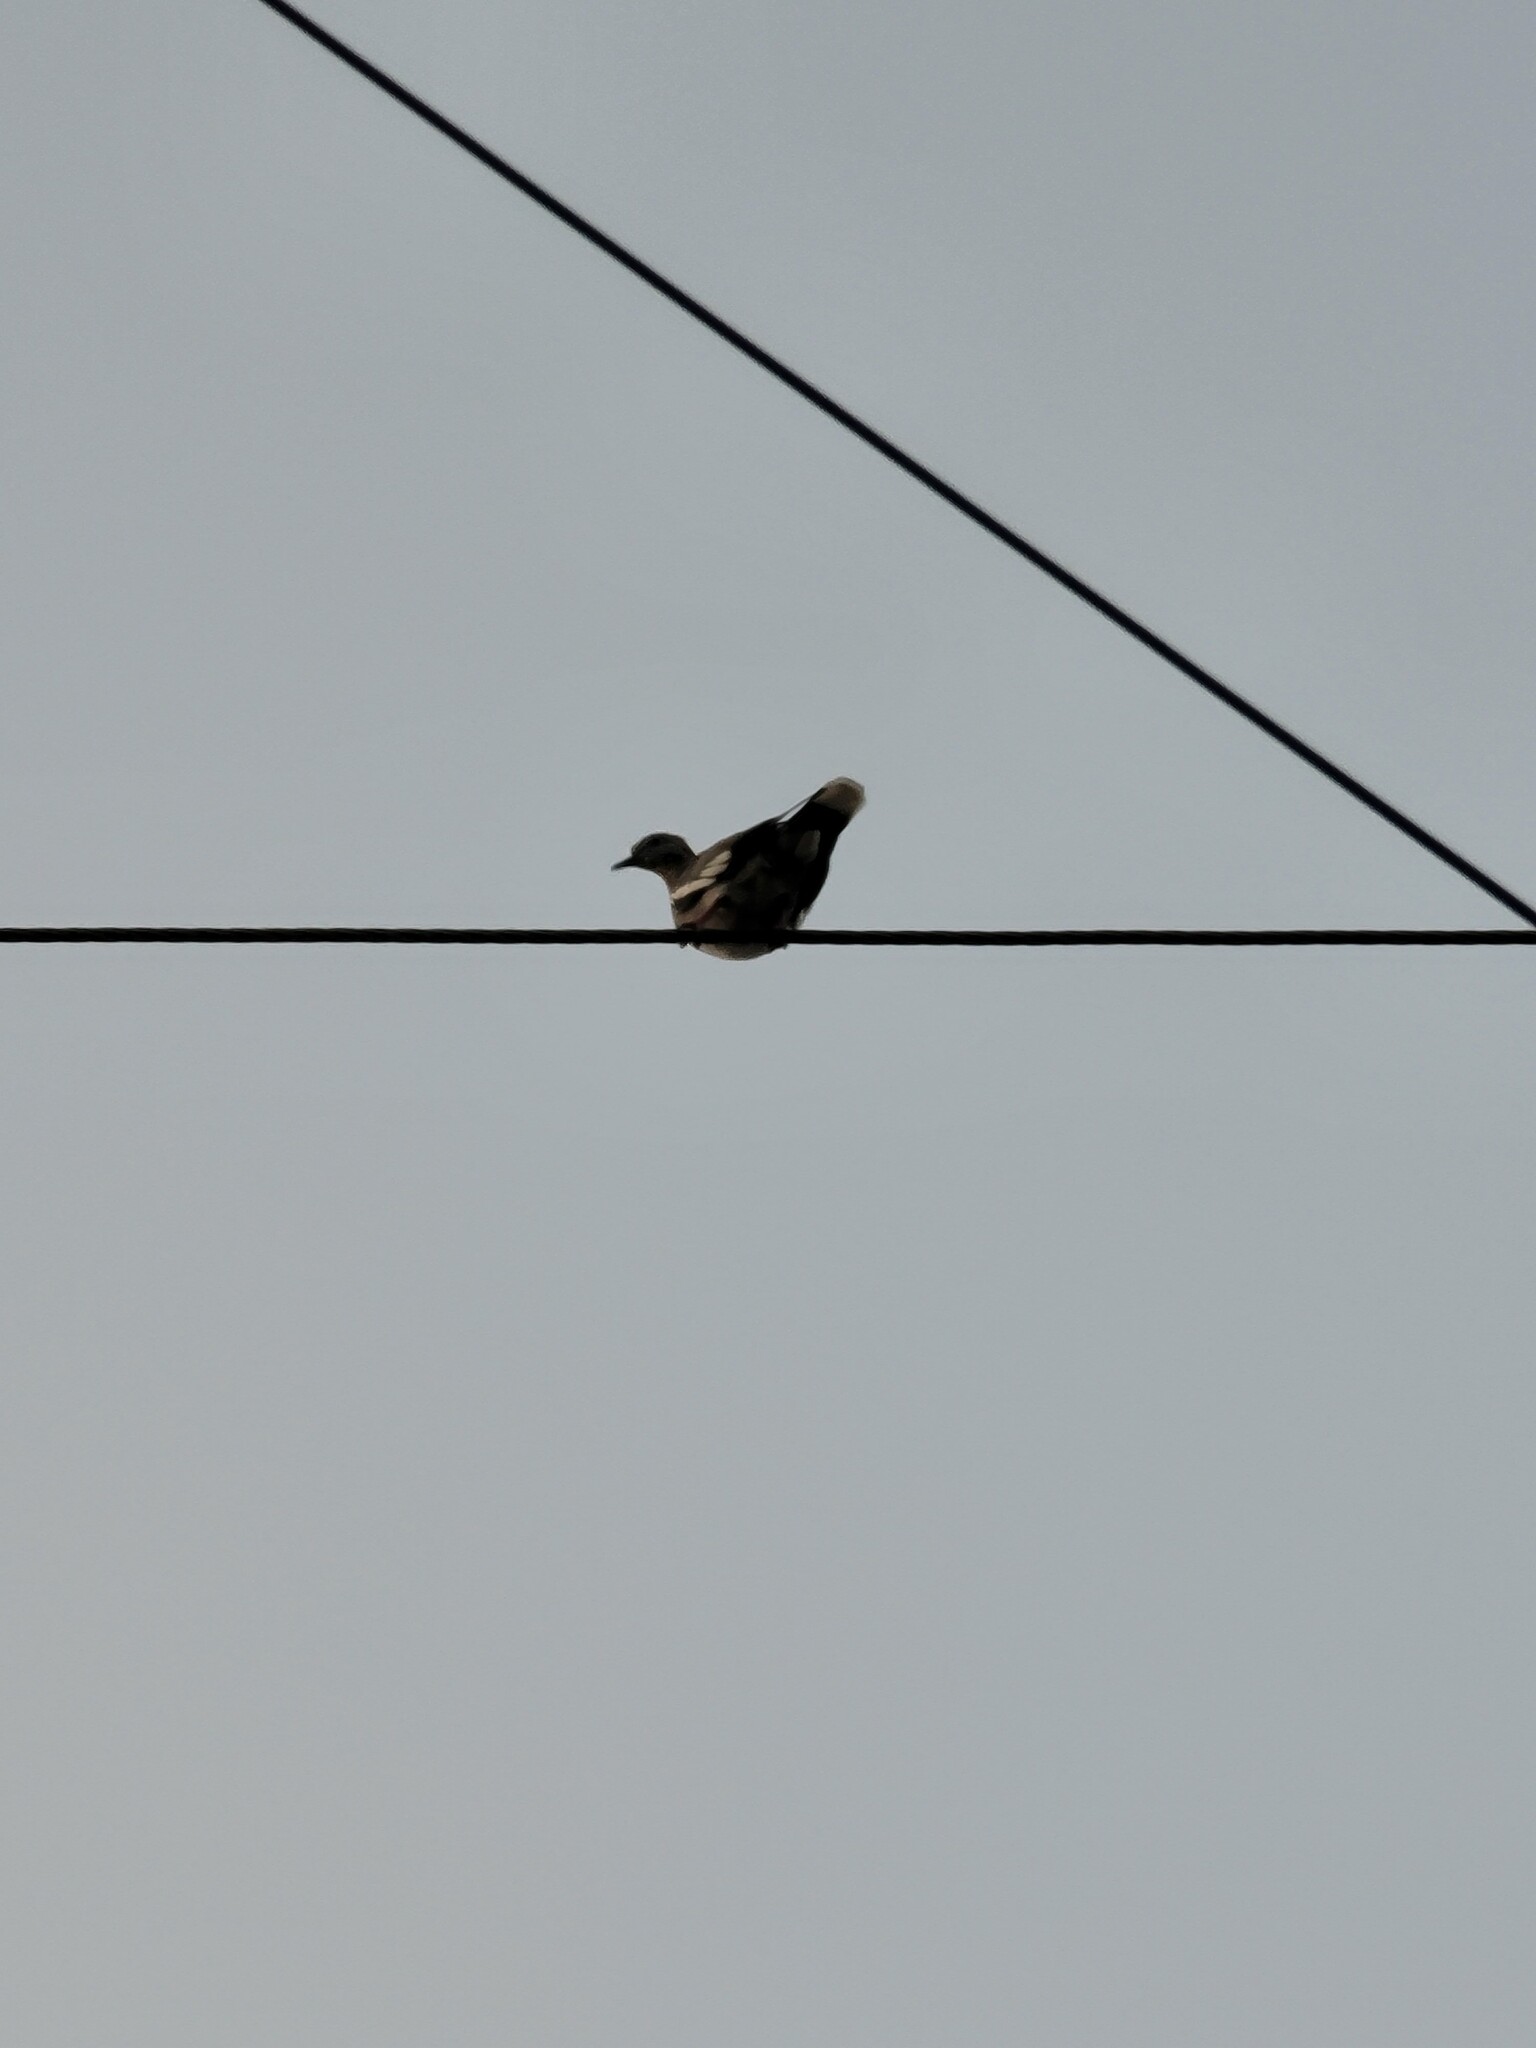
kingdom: Animalia
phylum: Chordata
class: Aves
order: Columbiformes
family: Columbidae
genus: Zenaida
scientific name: Zenaida asiatica
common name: White-winged dove
